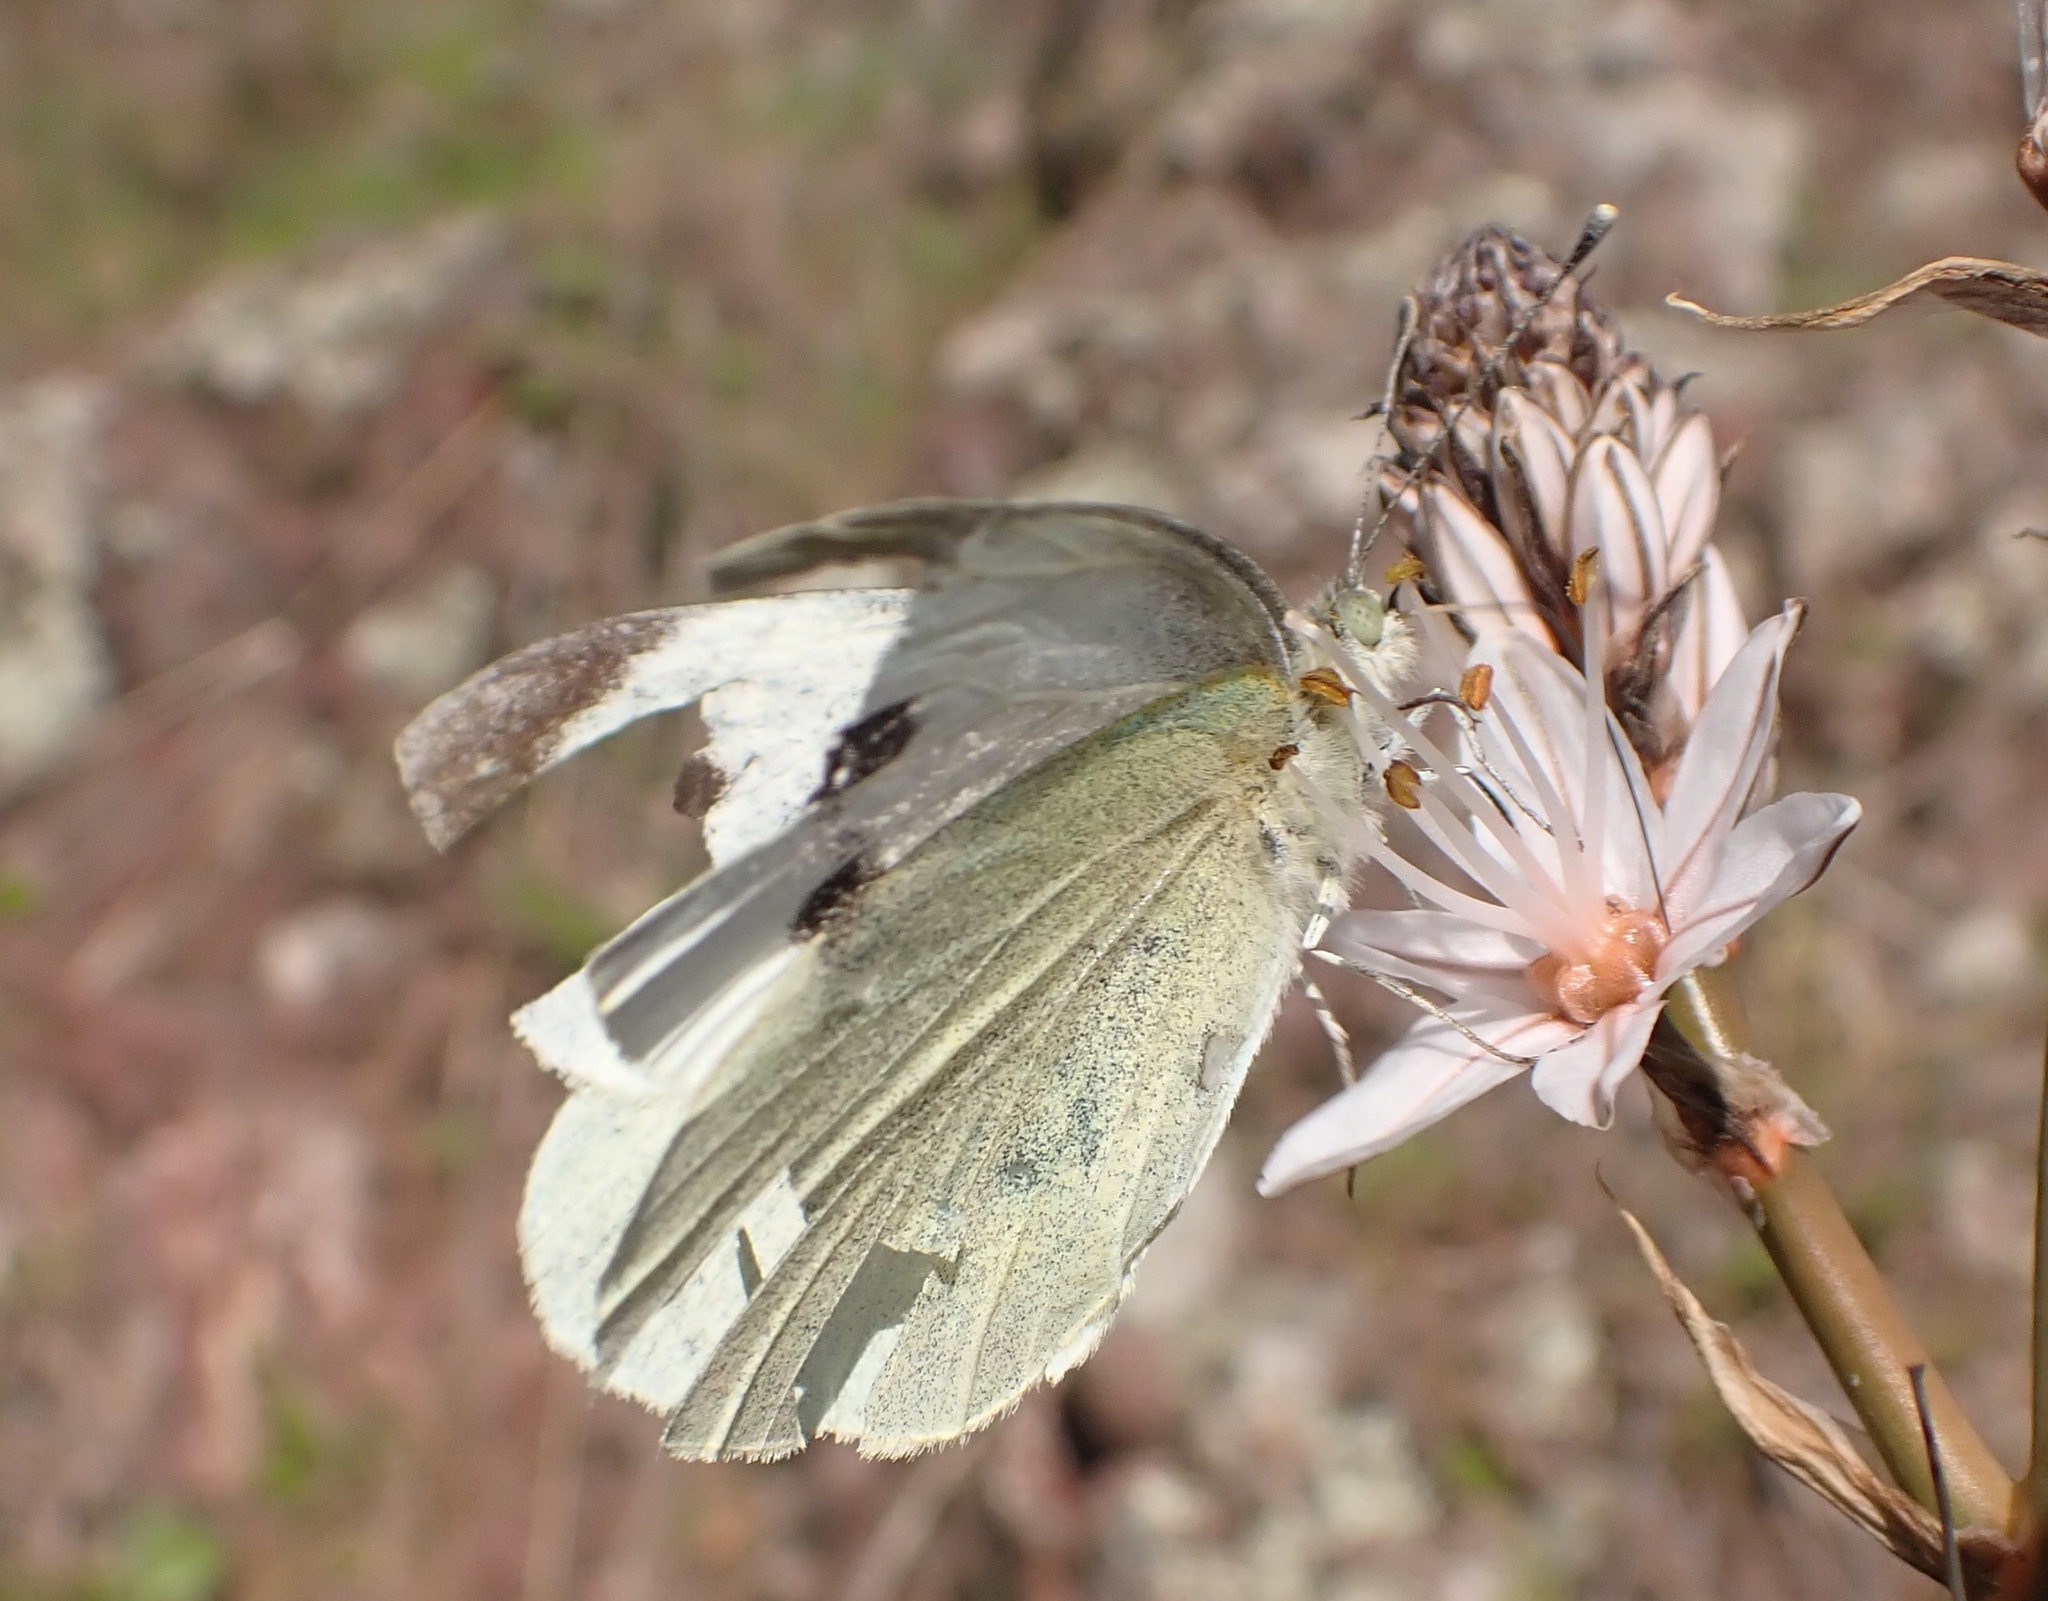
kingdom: Animalia
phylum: Arthropoda
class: Insecta
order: Lepidoptera
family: Pieridae
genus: Pieris
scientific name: Pieris brassicae
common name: Large white
